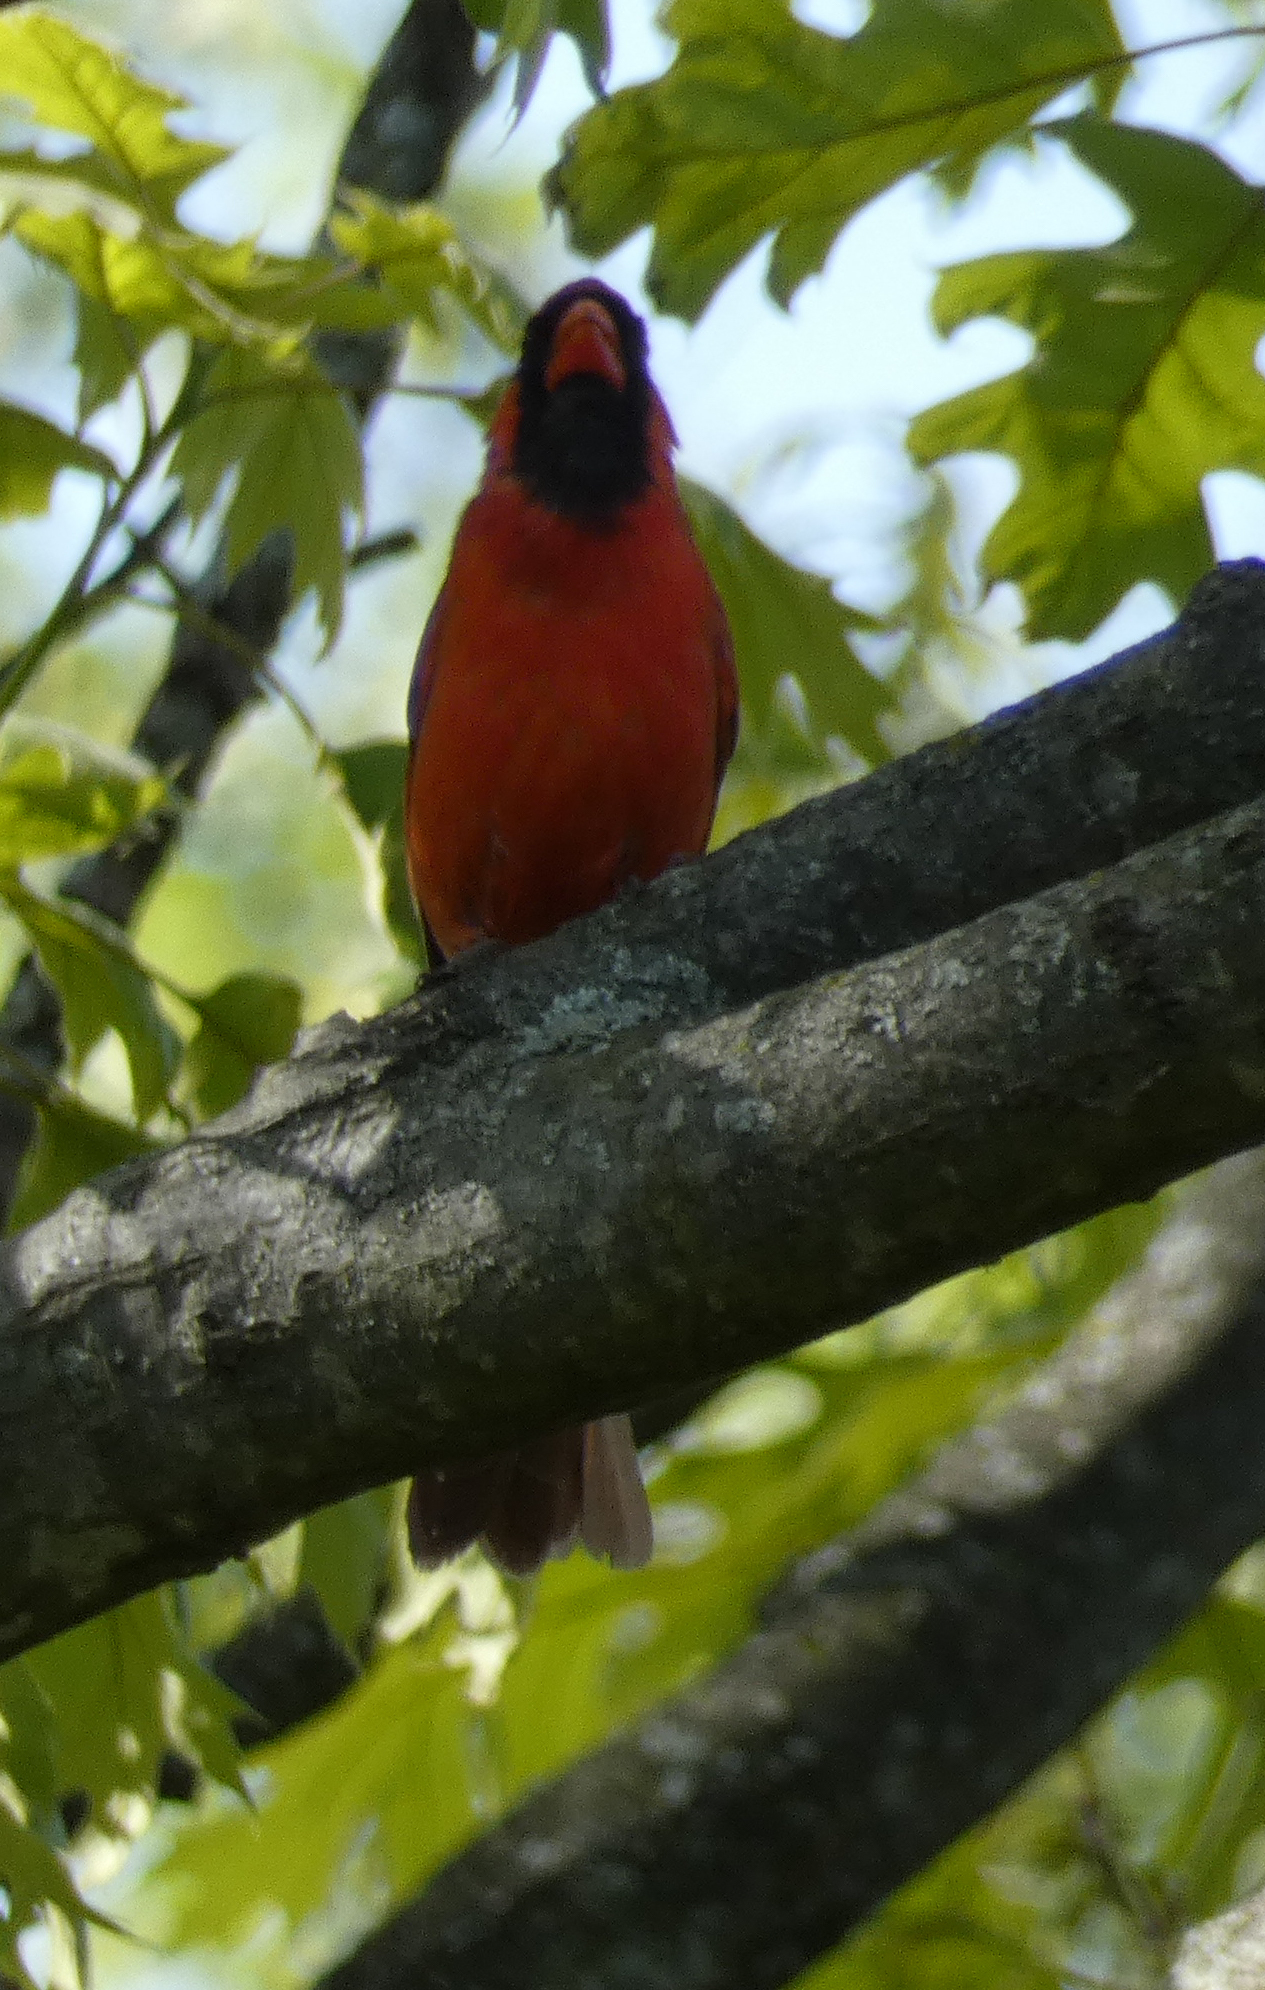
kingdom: Animalia
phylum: Chordata
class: Aves
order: Passeriformes
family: Cardinalidae
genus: Cardinalis
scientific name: Cardinalis cardinalis
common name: Northern cardinal
